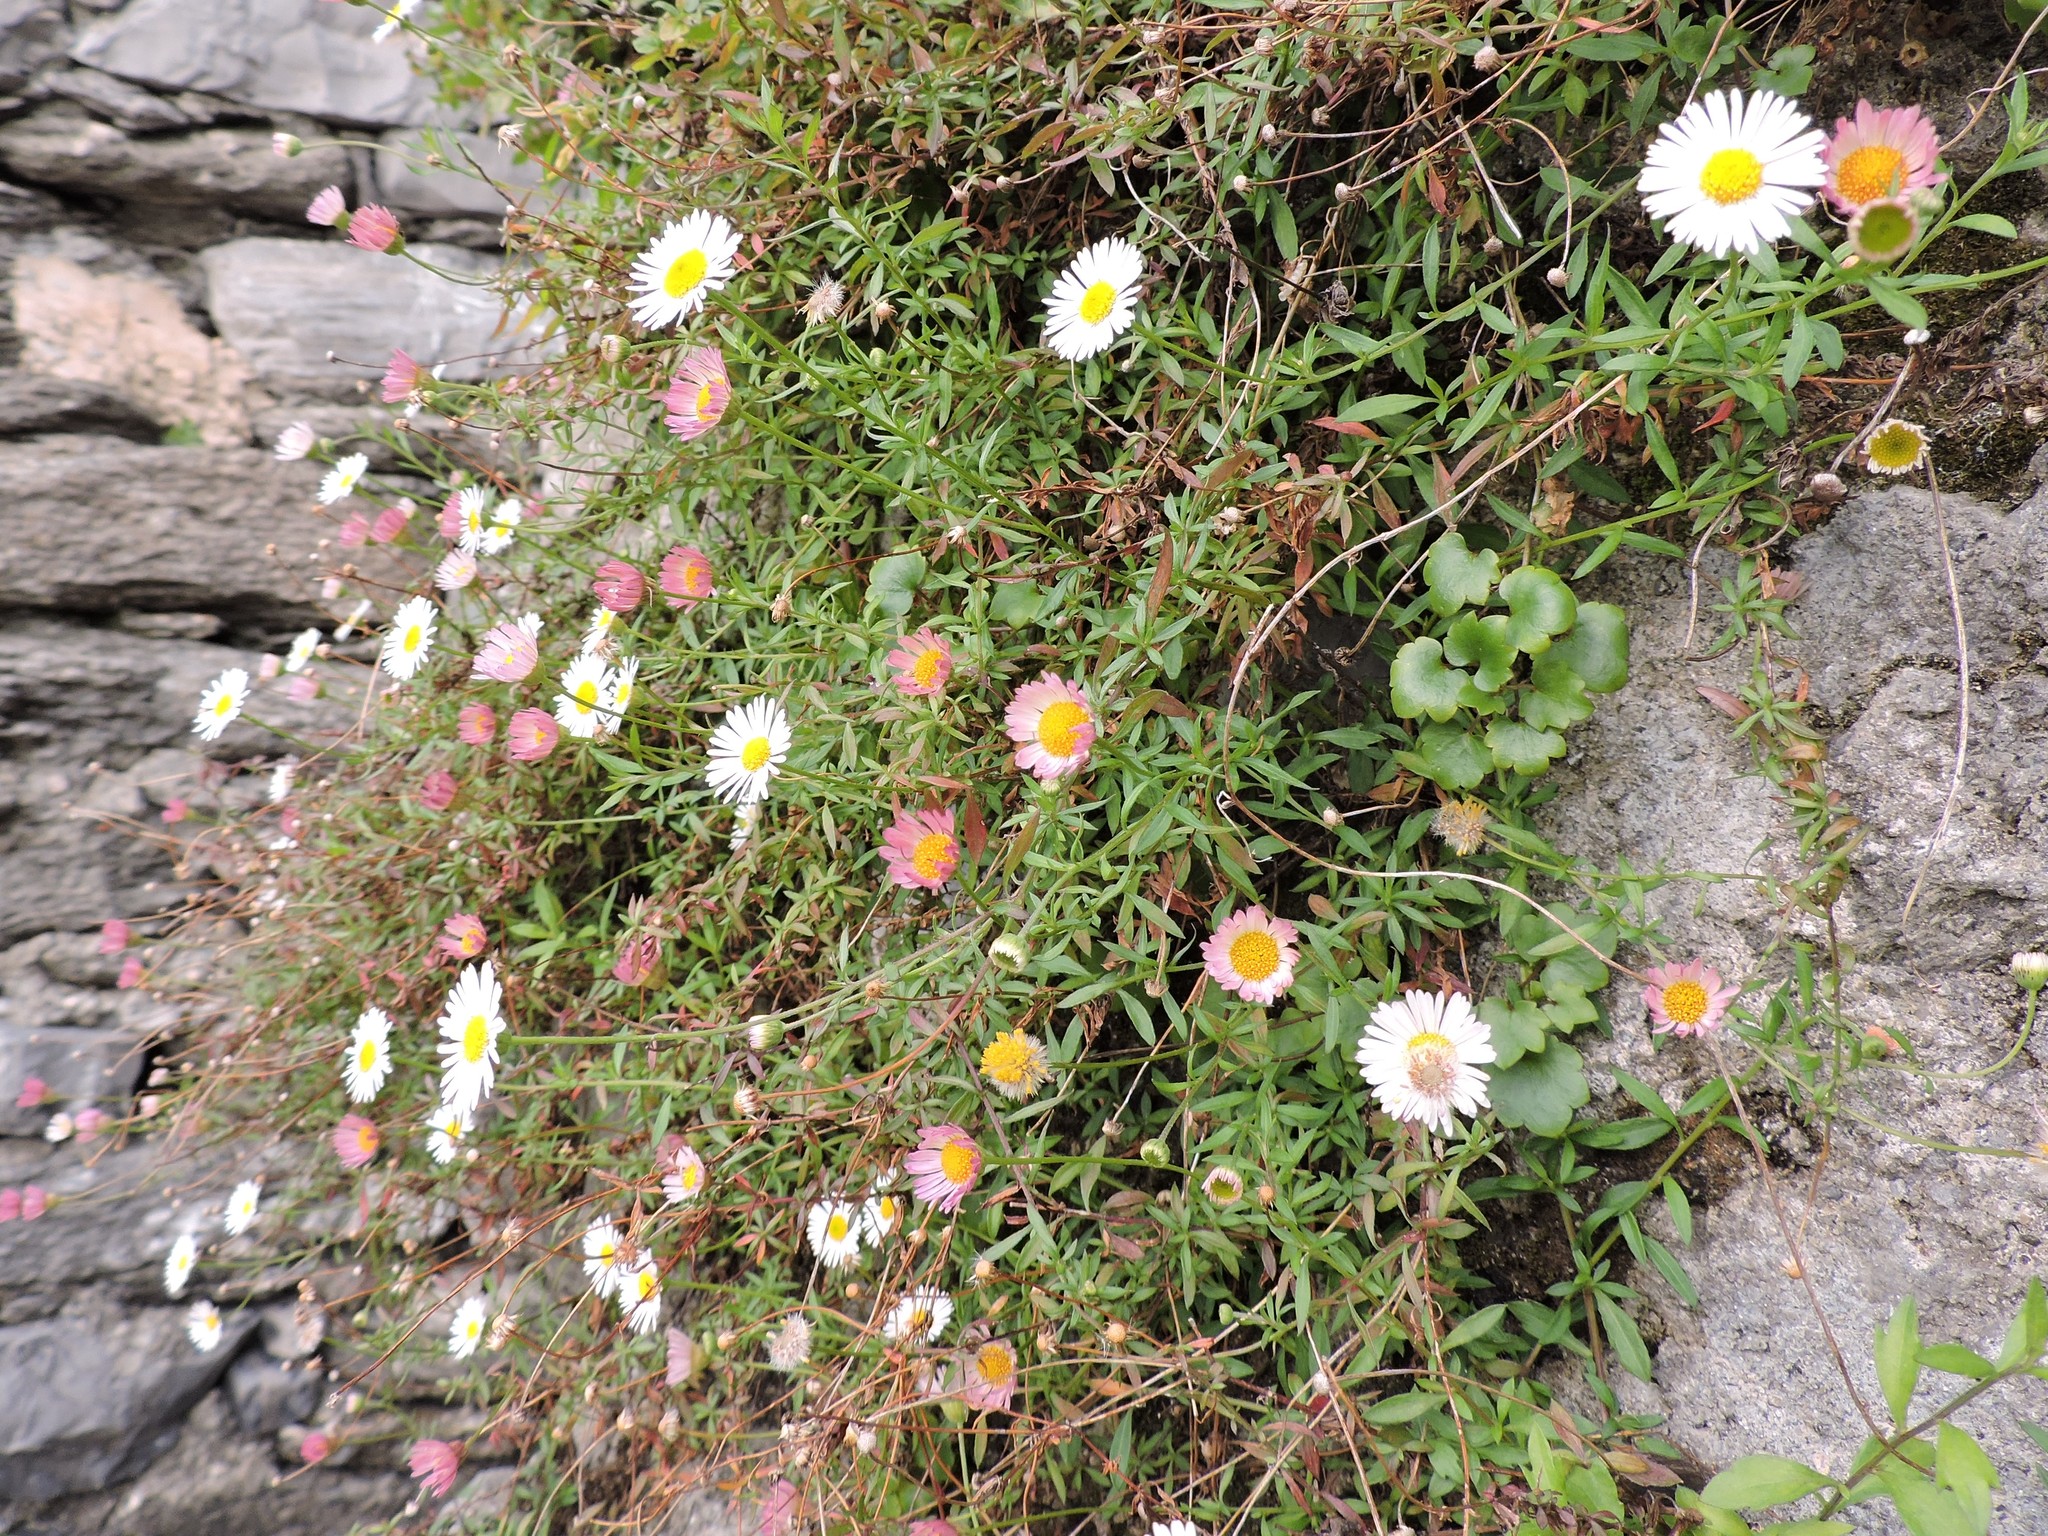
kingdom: Plantae
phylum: Tracheophyta
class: Magnoliopsida
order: Asterales
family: Asteraceae
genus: Erigeron
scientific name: Erigeron karvinskianus
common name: Mexican fleabane
